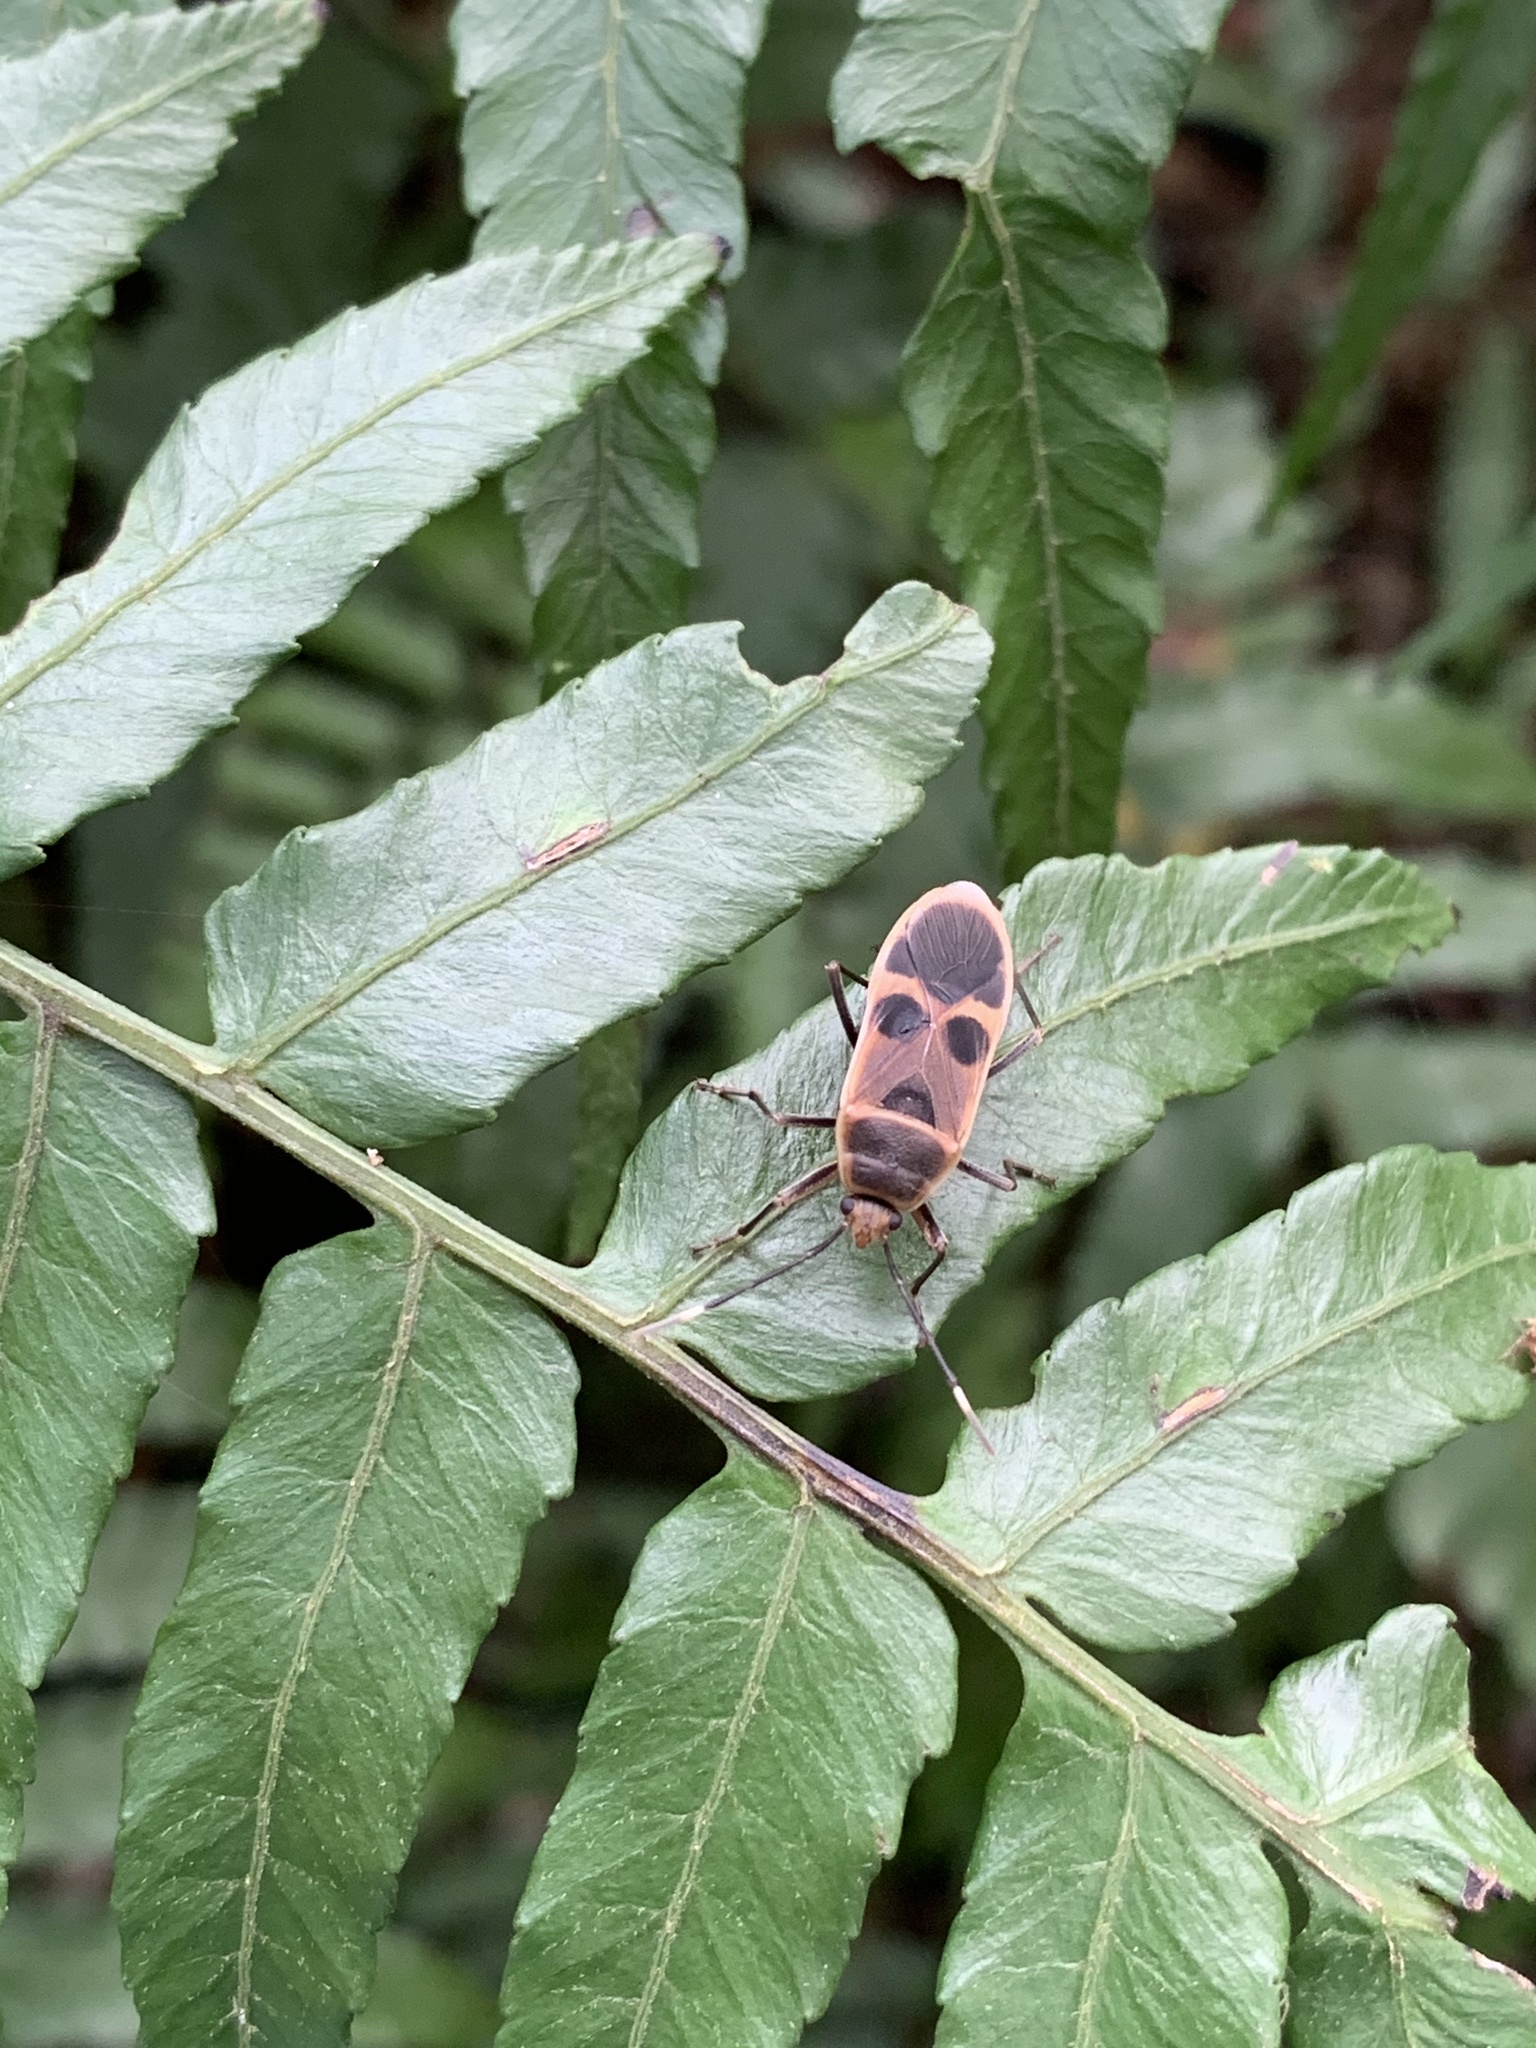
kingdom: Animalia
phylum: Arthropoda
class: Insecta
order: Hemiptera
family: Largidae
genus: Physopelta
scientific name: Physopelta gutta
